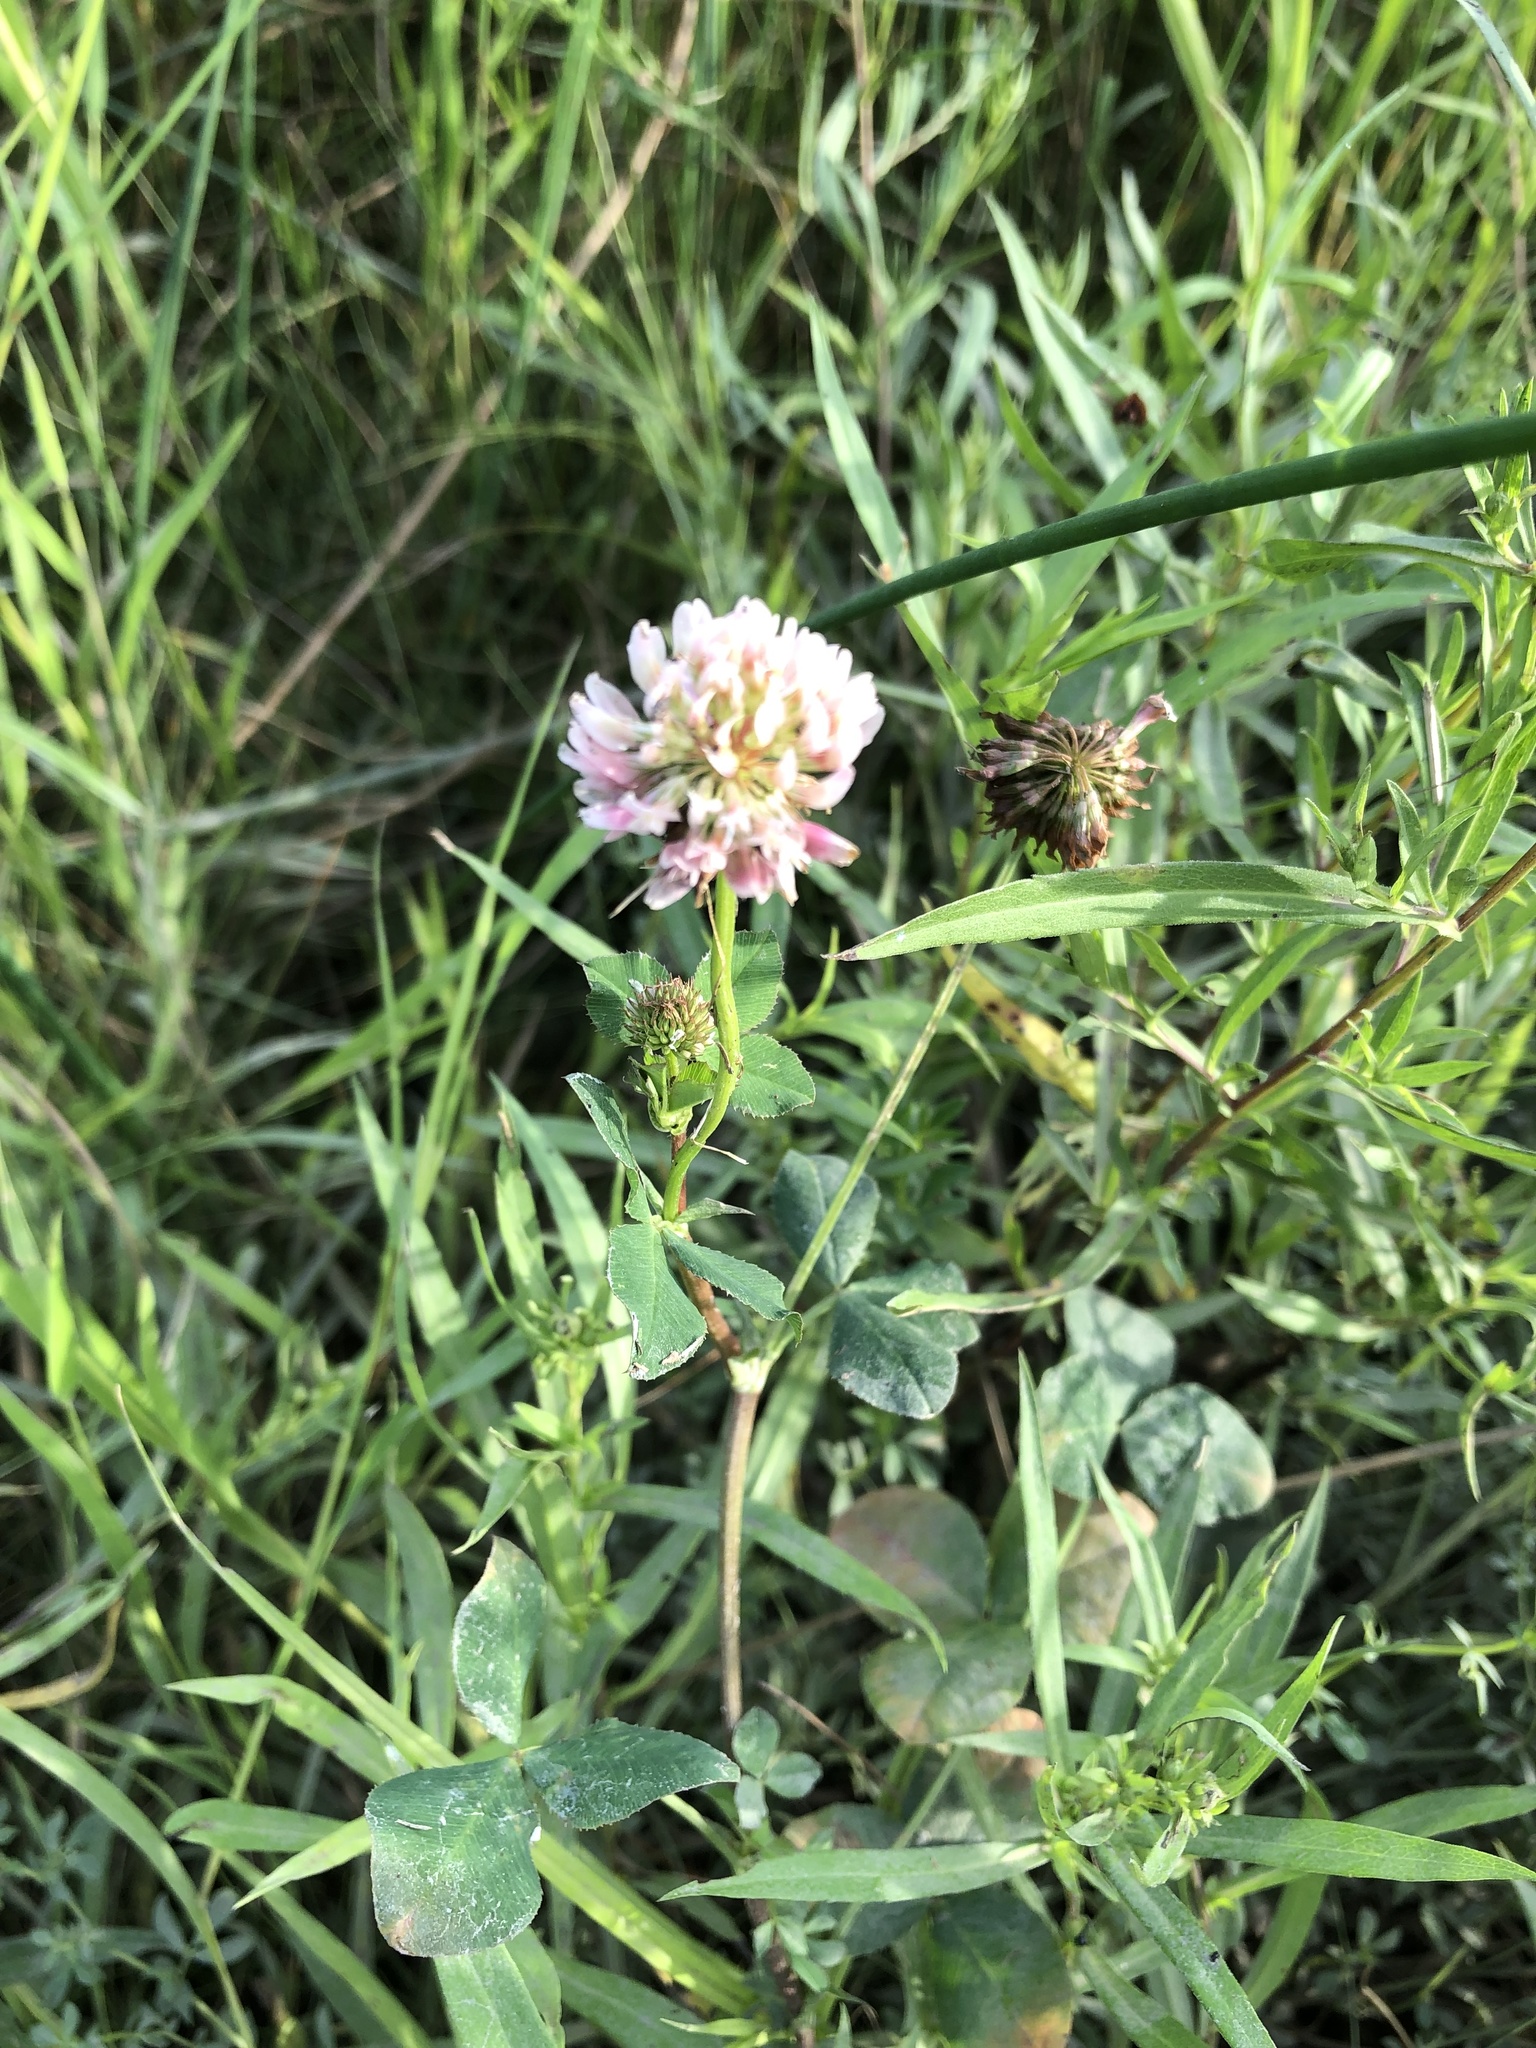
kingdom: Plantae
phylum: Tracheophyta
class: Magnoliopsida
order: Fabales
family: Fabaceae
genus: Trifolium
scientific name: Trifolium hybridum
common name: Alsike clover
